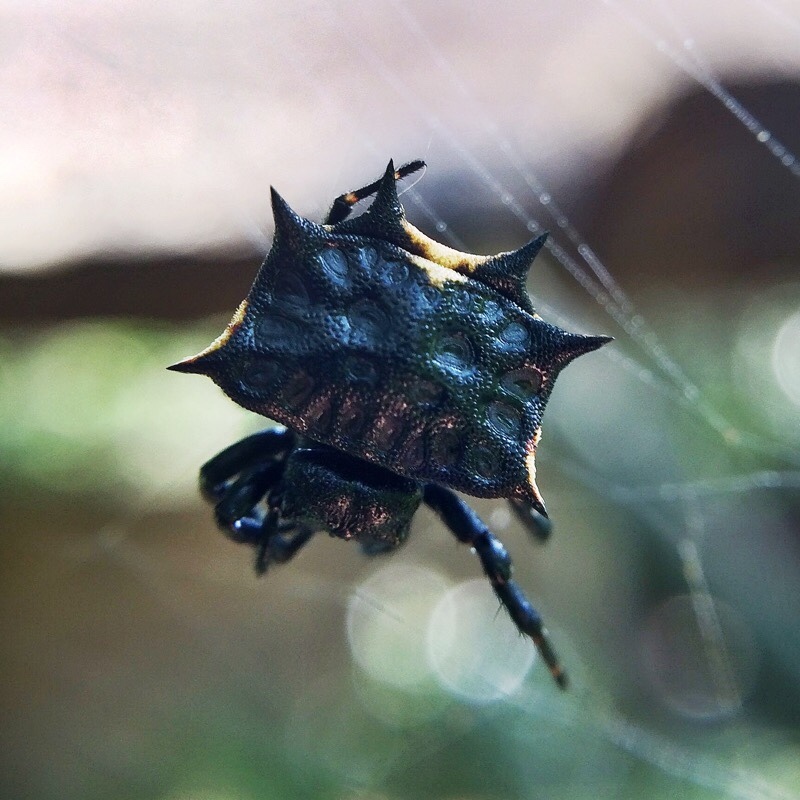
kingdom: Animalia
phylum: Arthropoda
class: Arachnida
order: Araneae
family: Araneidae
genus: Isoxya
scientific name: Isoxya tabulata
